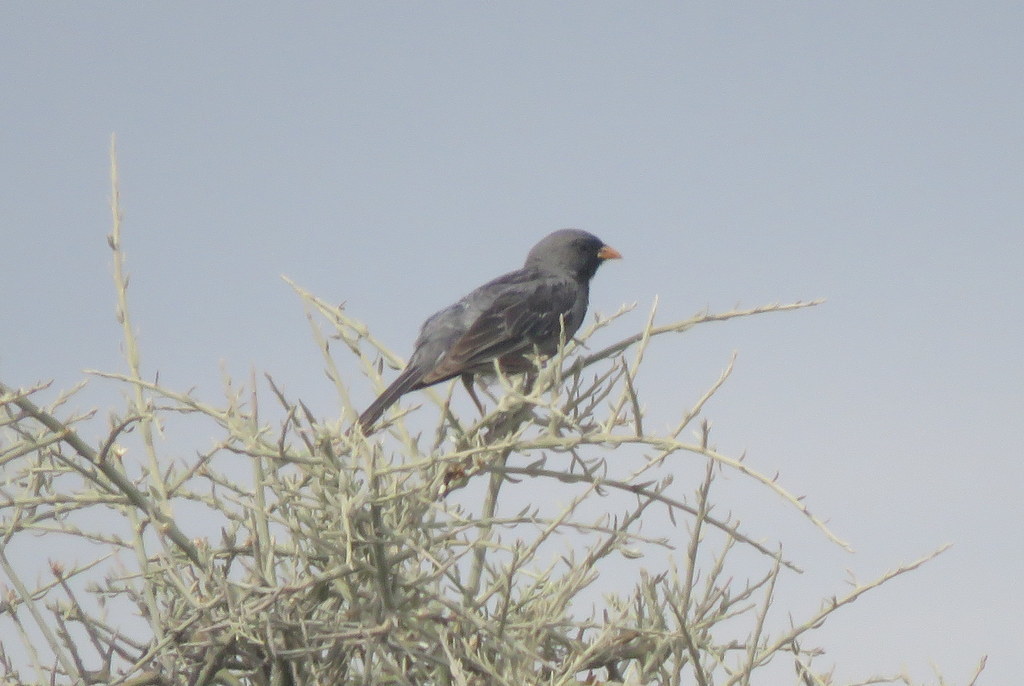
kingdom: Animalia
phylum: Chordata
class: Aves
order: Passeriformes
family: Thraupidae
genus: Rhopospina
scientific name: Rhopospina fruticeti
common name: Mourning sierra finch
